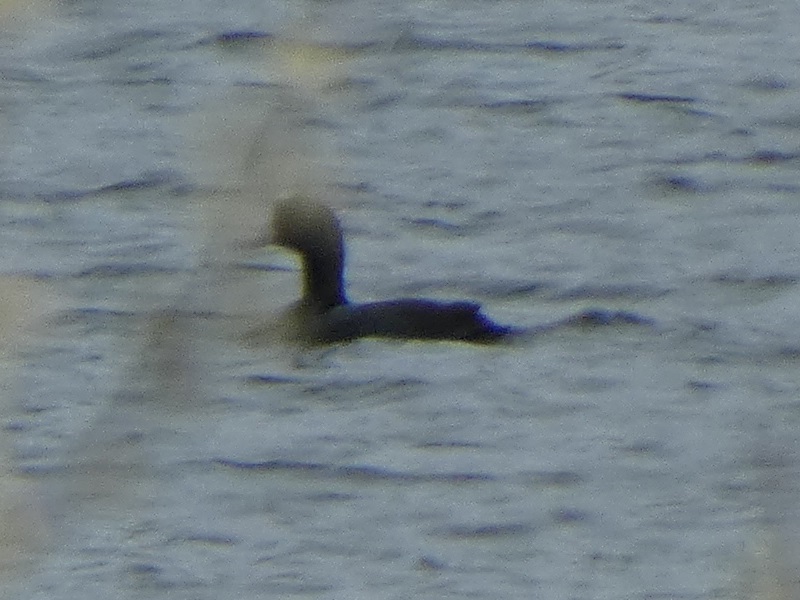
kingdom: Animalia
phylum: Chordata
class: Aves
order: Gruiformes
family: Rallidae
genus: Fulica
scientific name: Fulica atra
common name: Eurasian coot
